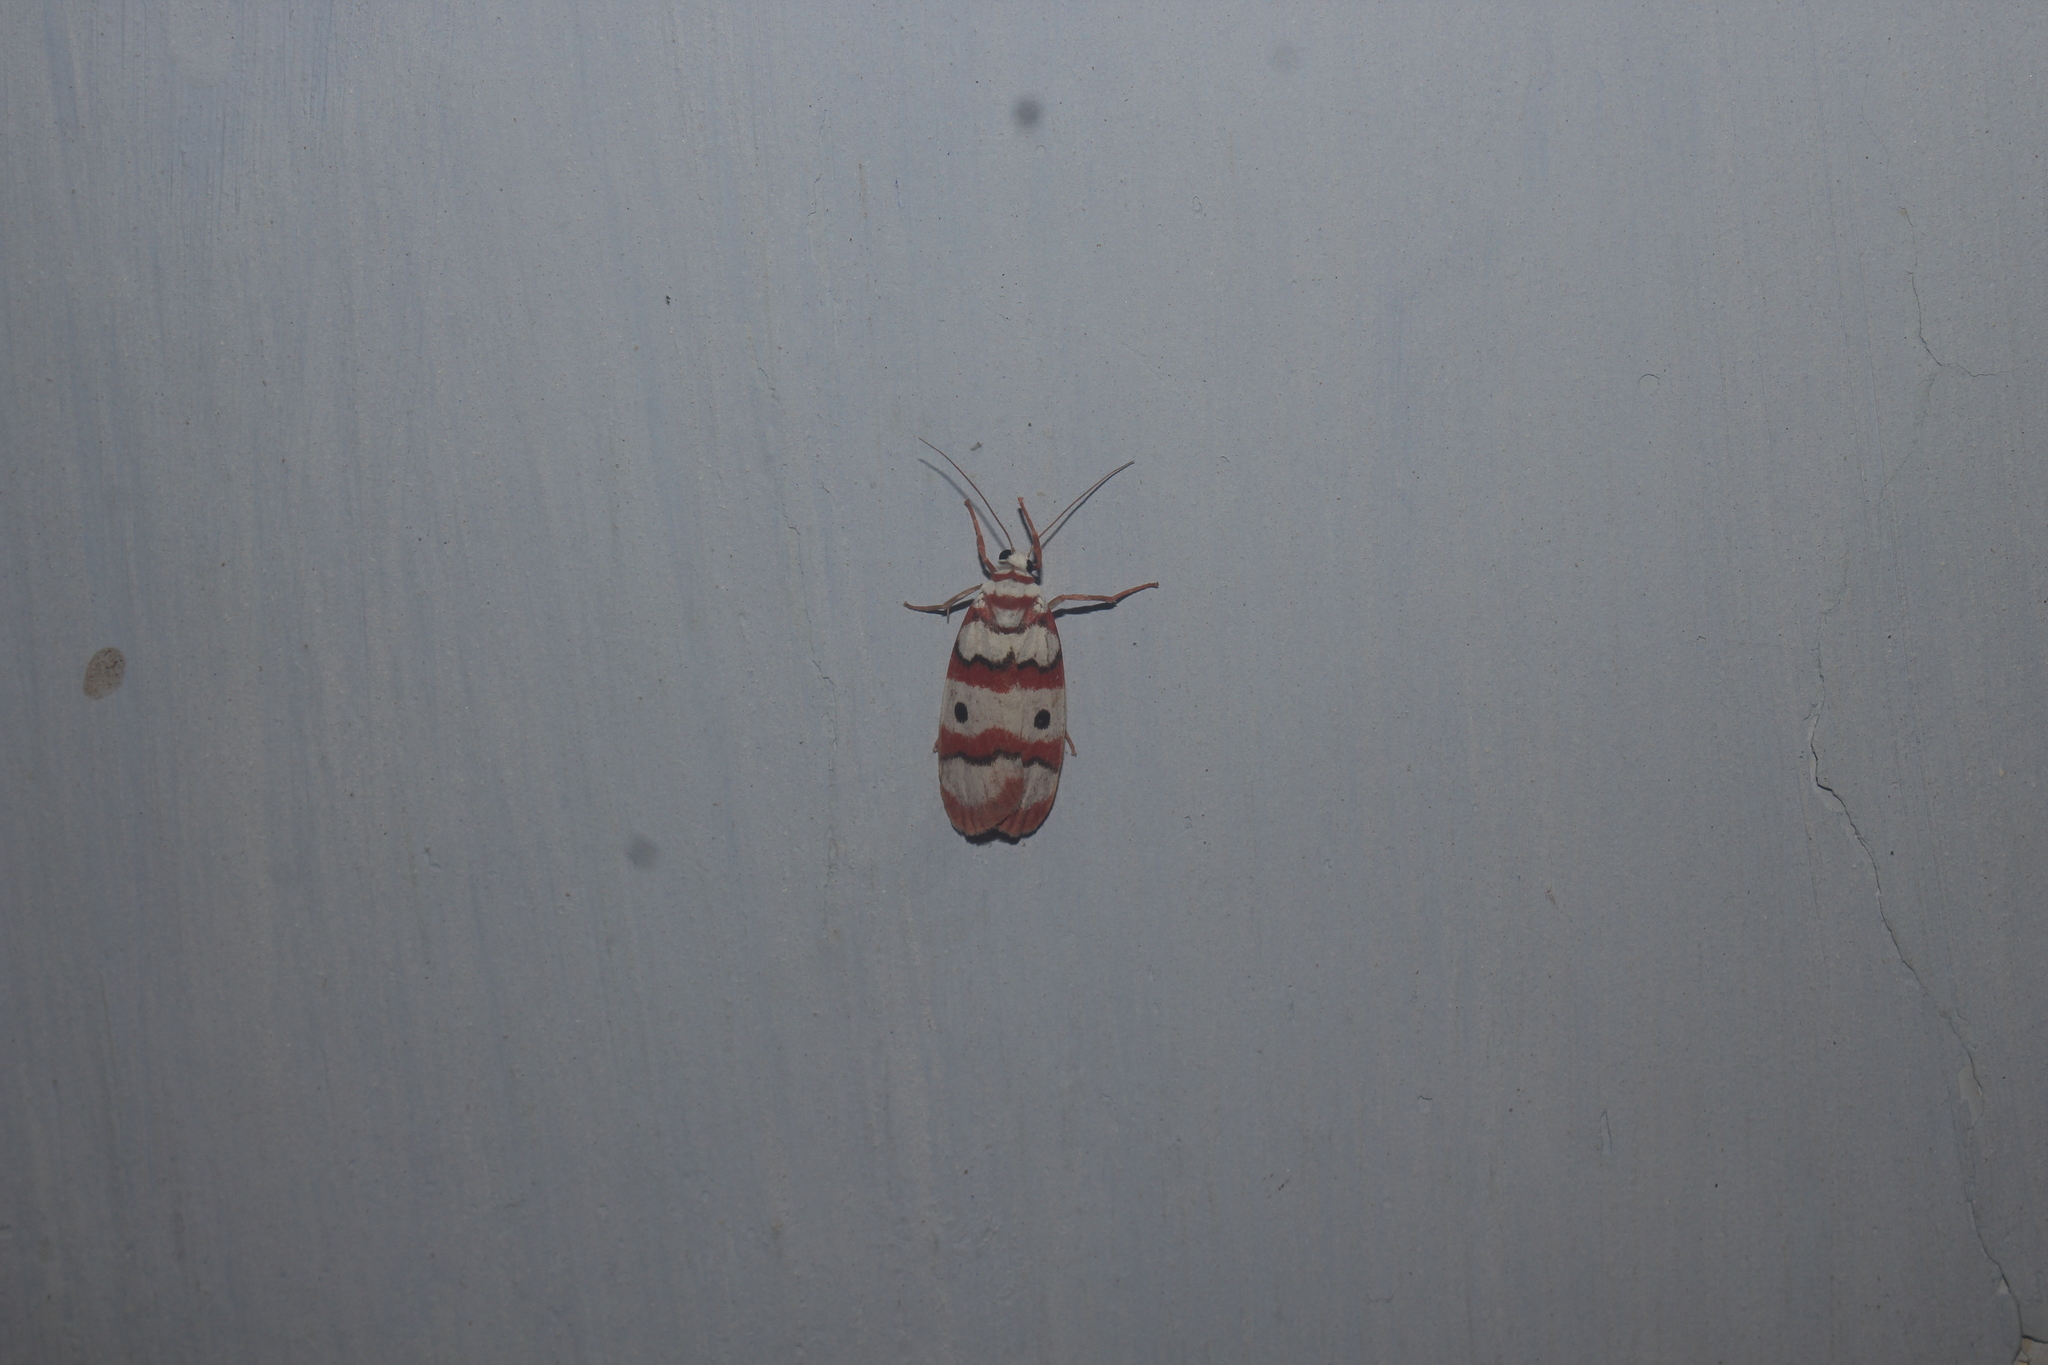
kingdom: Animalia
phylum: Arthropoda
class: Insecta
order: Lepidoptera
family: Erebidae
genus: Cyana
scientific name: Cyana bhatejai
